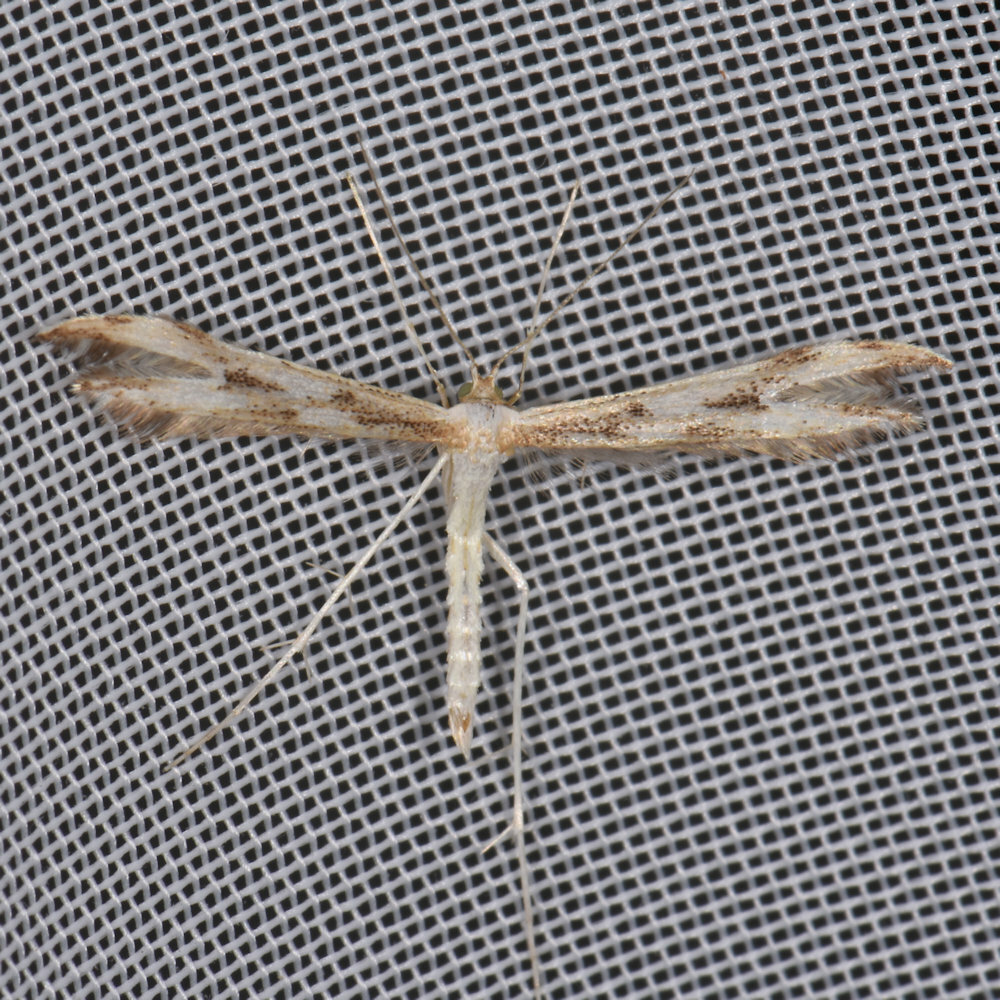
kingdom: Animalia
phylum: Arthropoda
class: Insecta
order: Lepidoptera
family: Pterophoridae
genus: Adaina
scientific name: Adaina montanus
